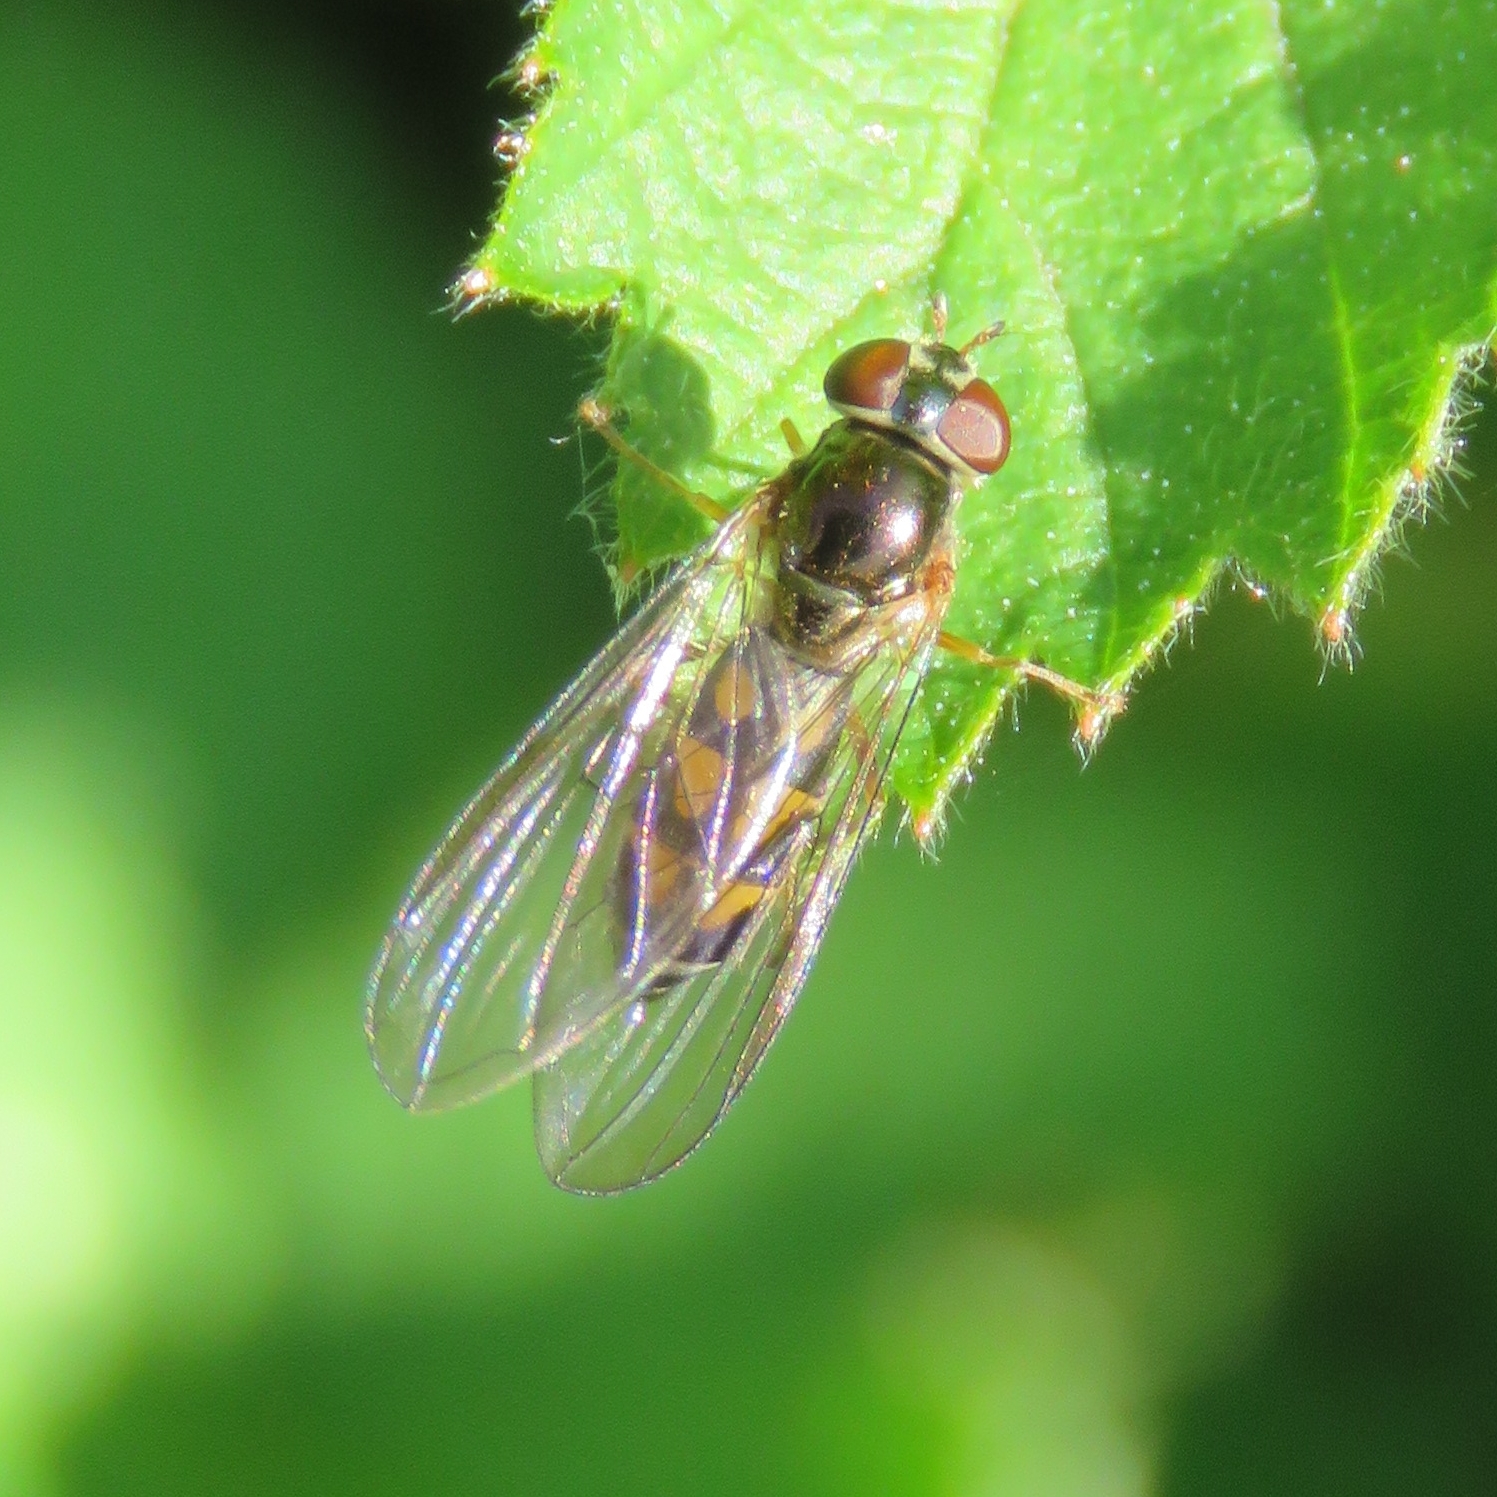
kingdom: Animalia
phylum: Arthropoda
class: Insecta
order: Diptera
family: Syrphidae
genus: Melanostoma
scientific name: Melanostoma scalare
